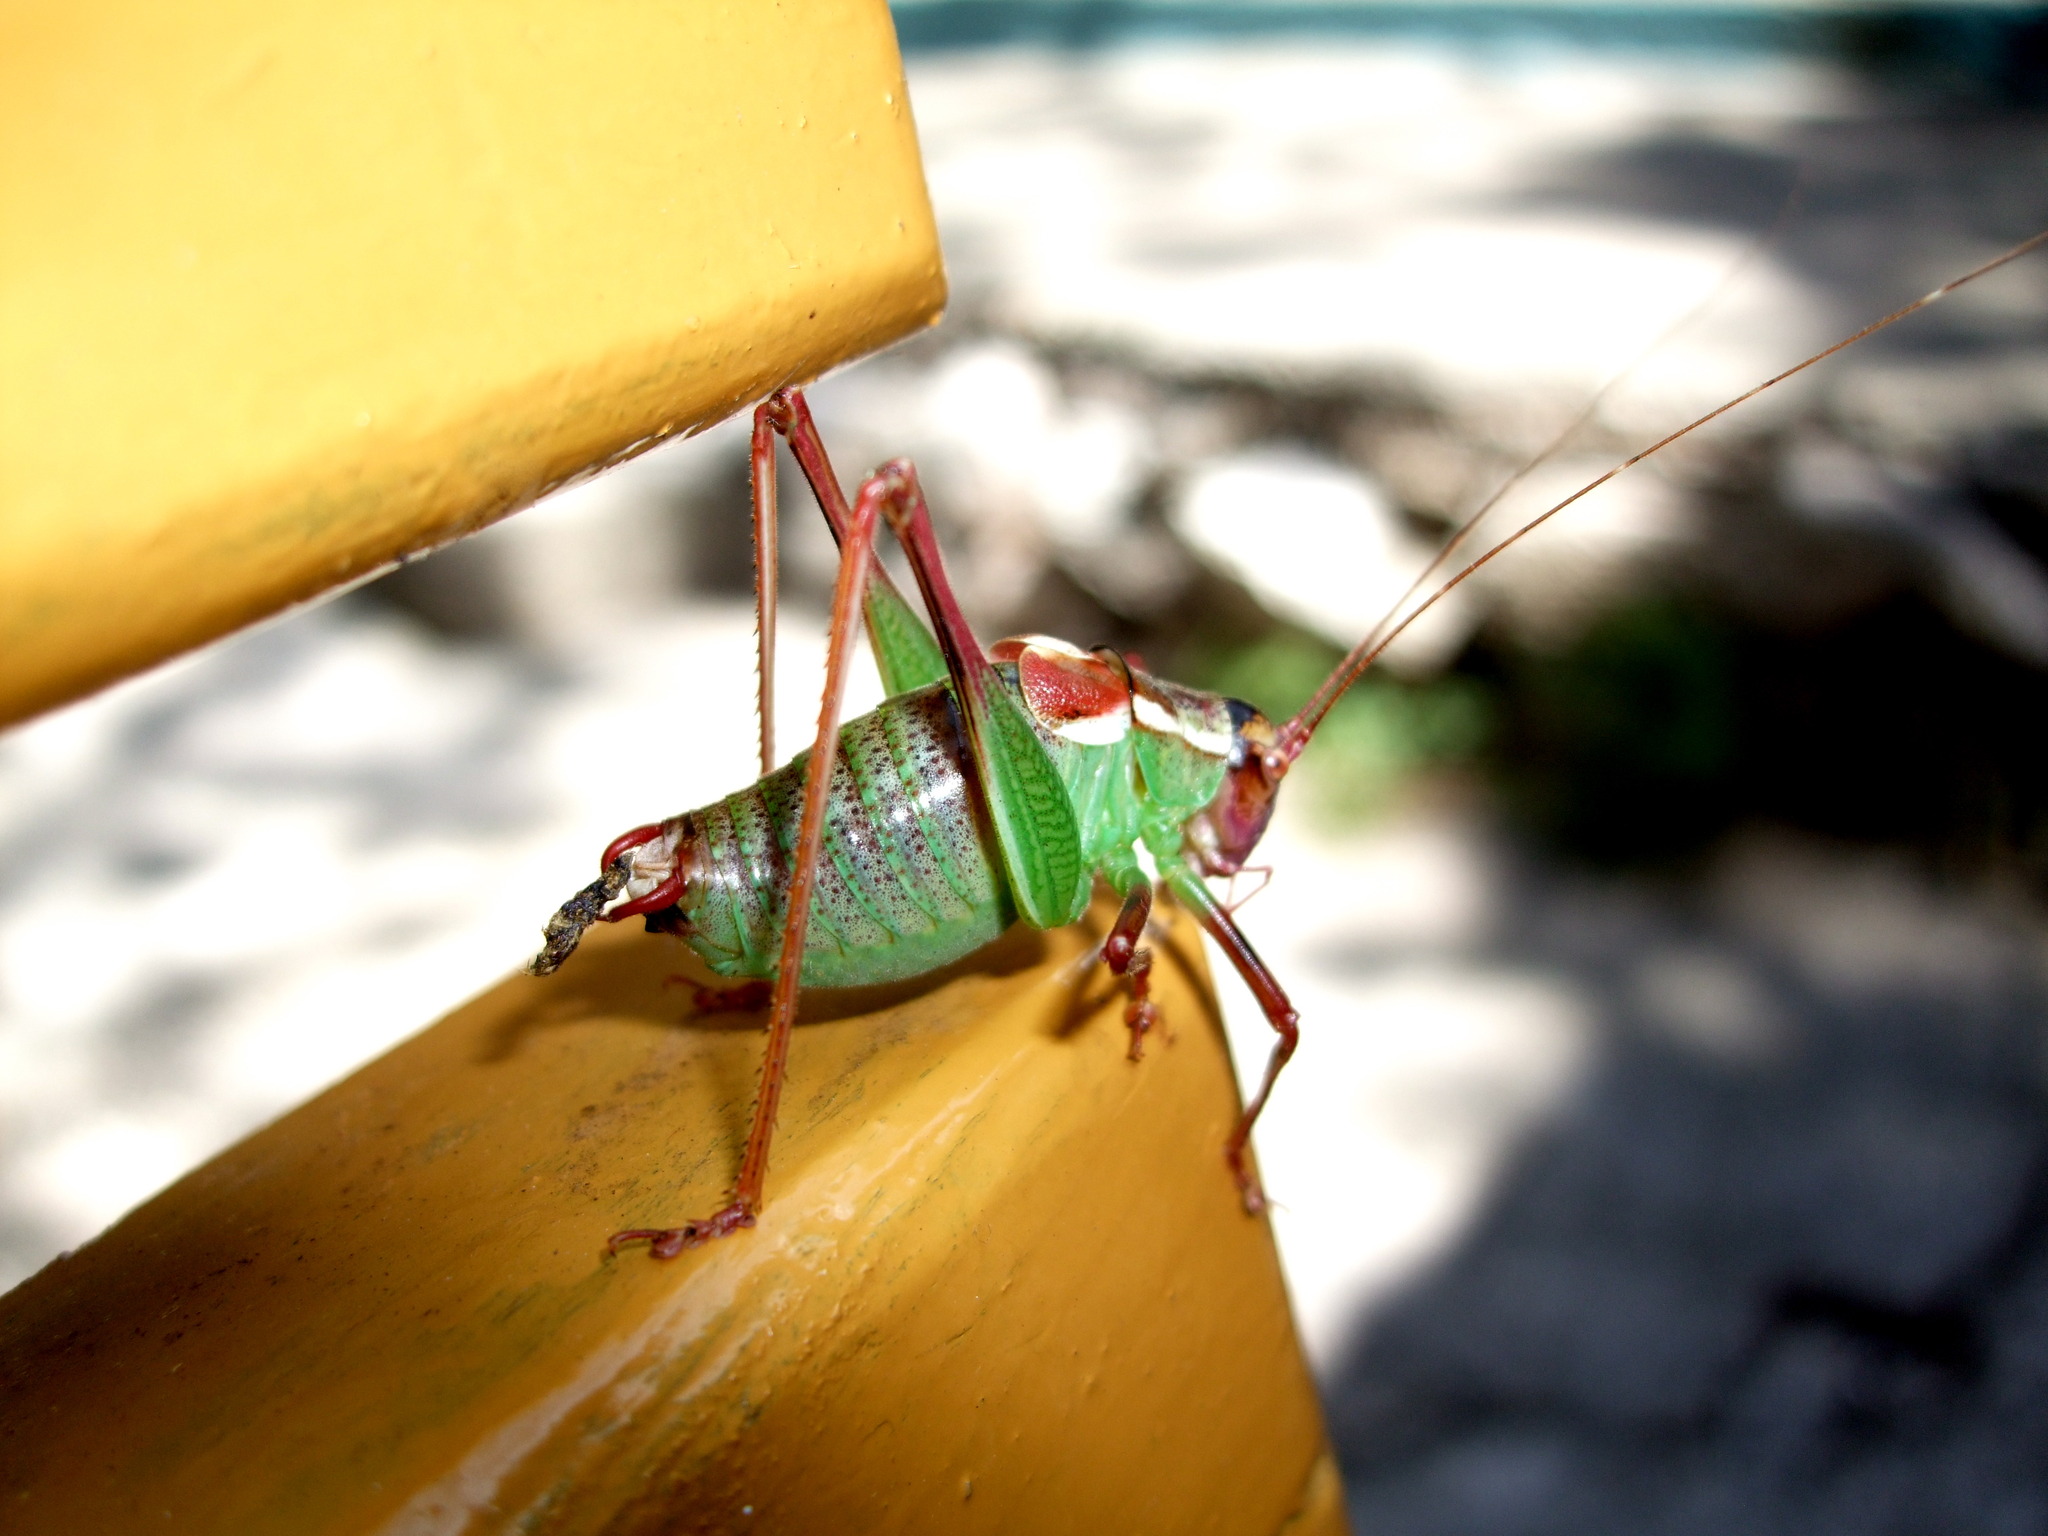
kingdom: Animalia
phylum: Arthropoda
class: Insecta
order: Orthoptera
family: Tettigoniidae
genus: Barbitistes
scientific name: Barbitistes ocskayi
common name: Black saw bush-cricket
